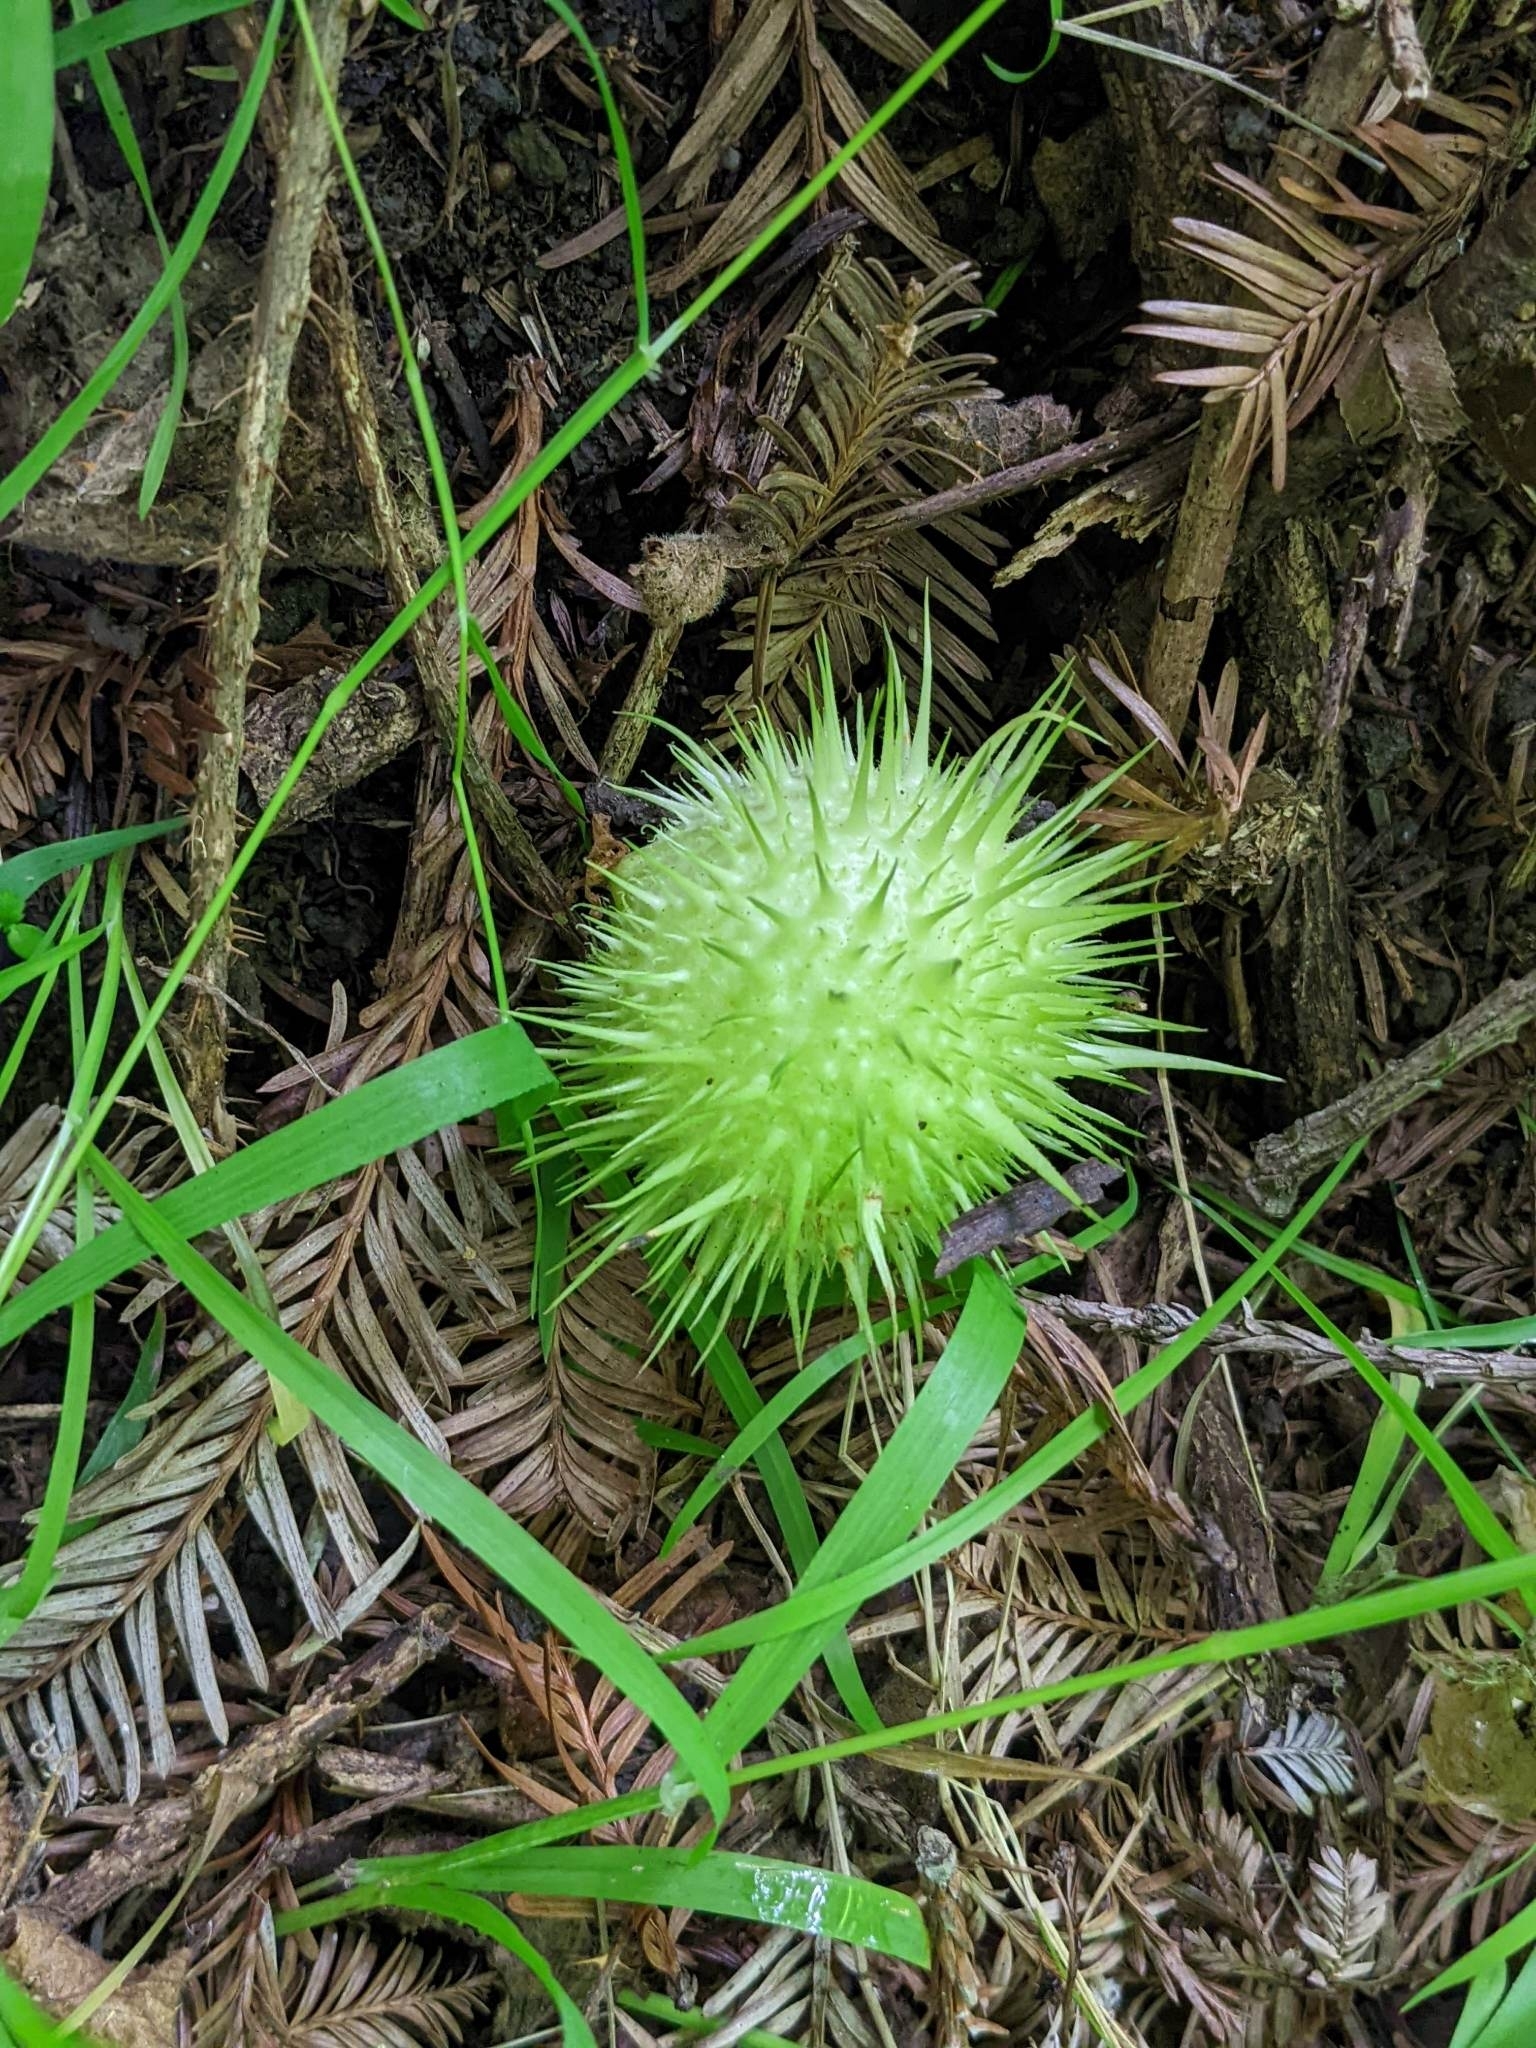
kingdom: Plantae
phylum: Tracheophyta
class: Magnoliopsida
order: Cucurbitales
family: Cucurbitaceae
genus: Marah
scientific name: Marah fabacea
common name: California manroot
